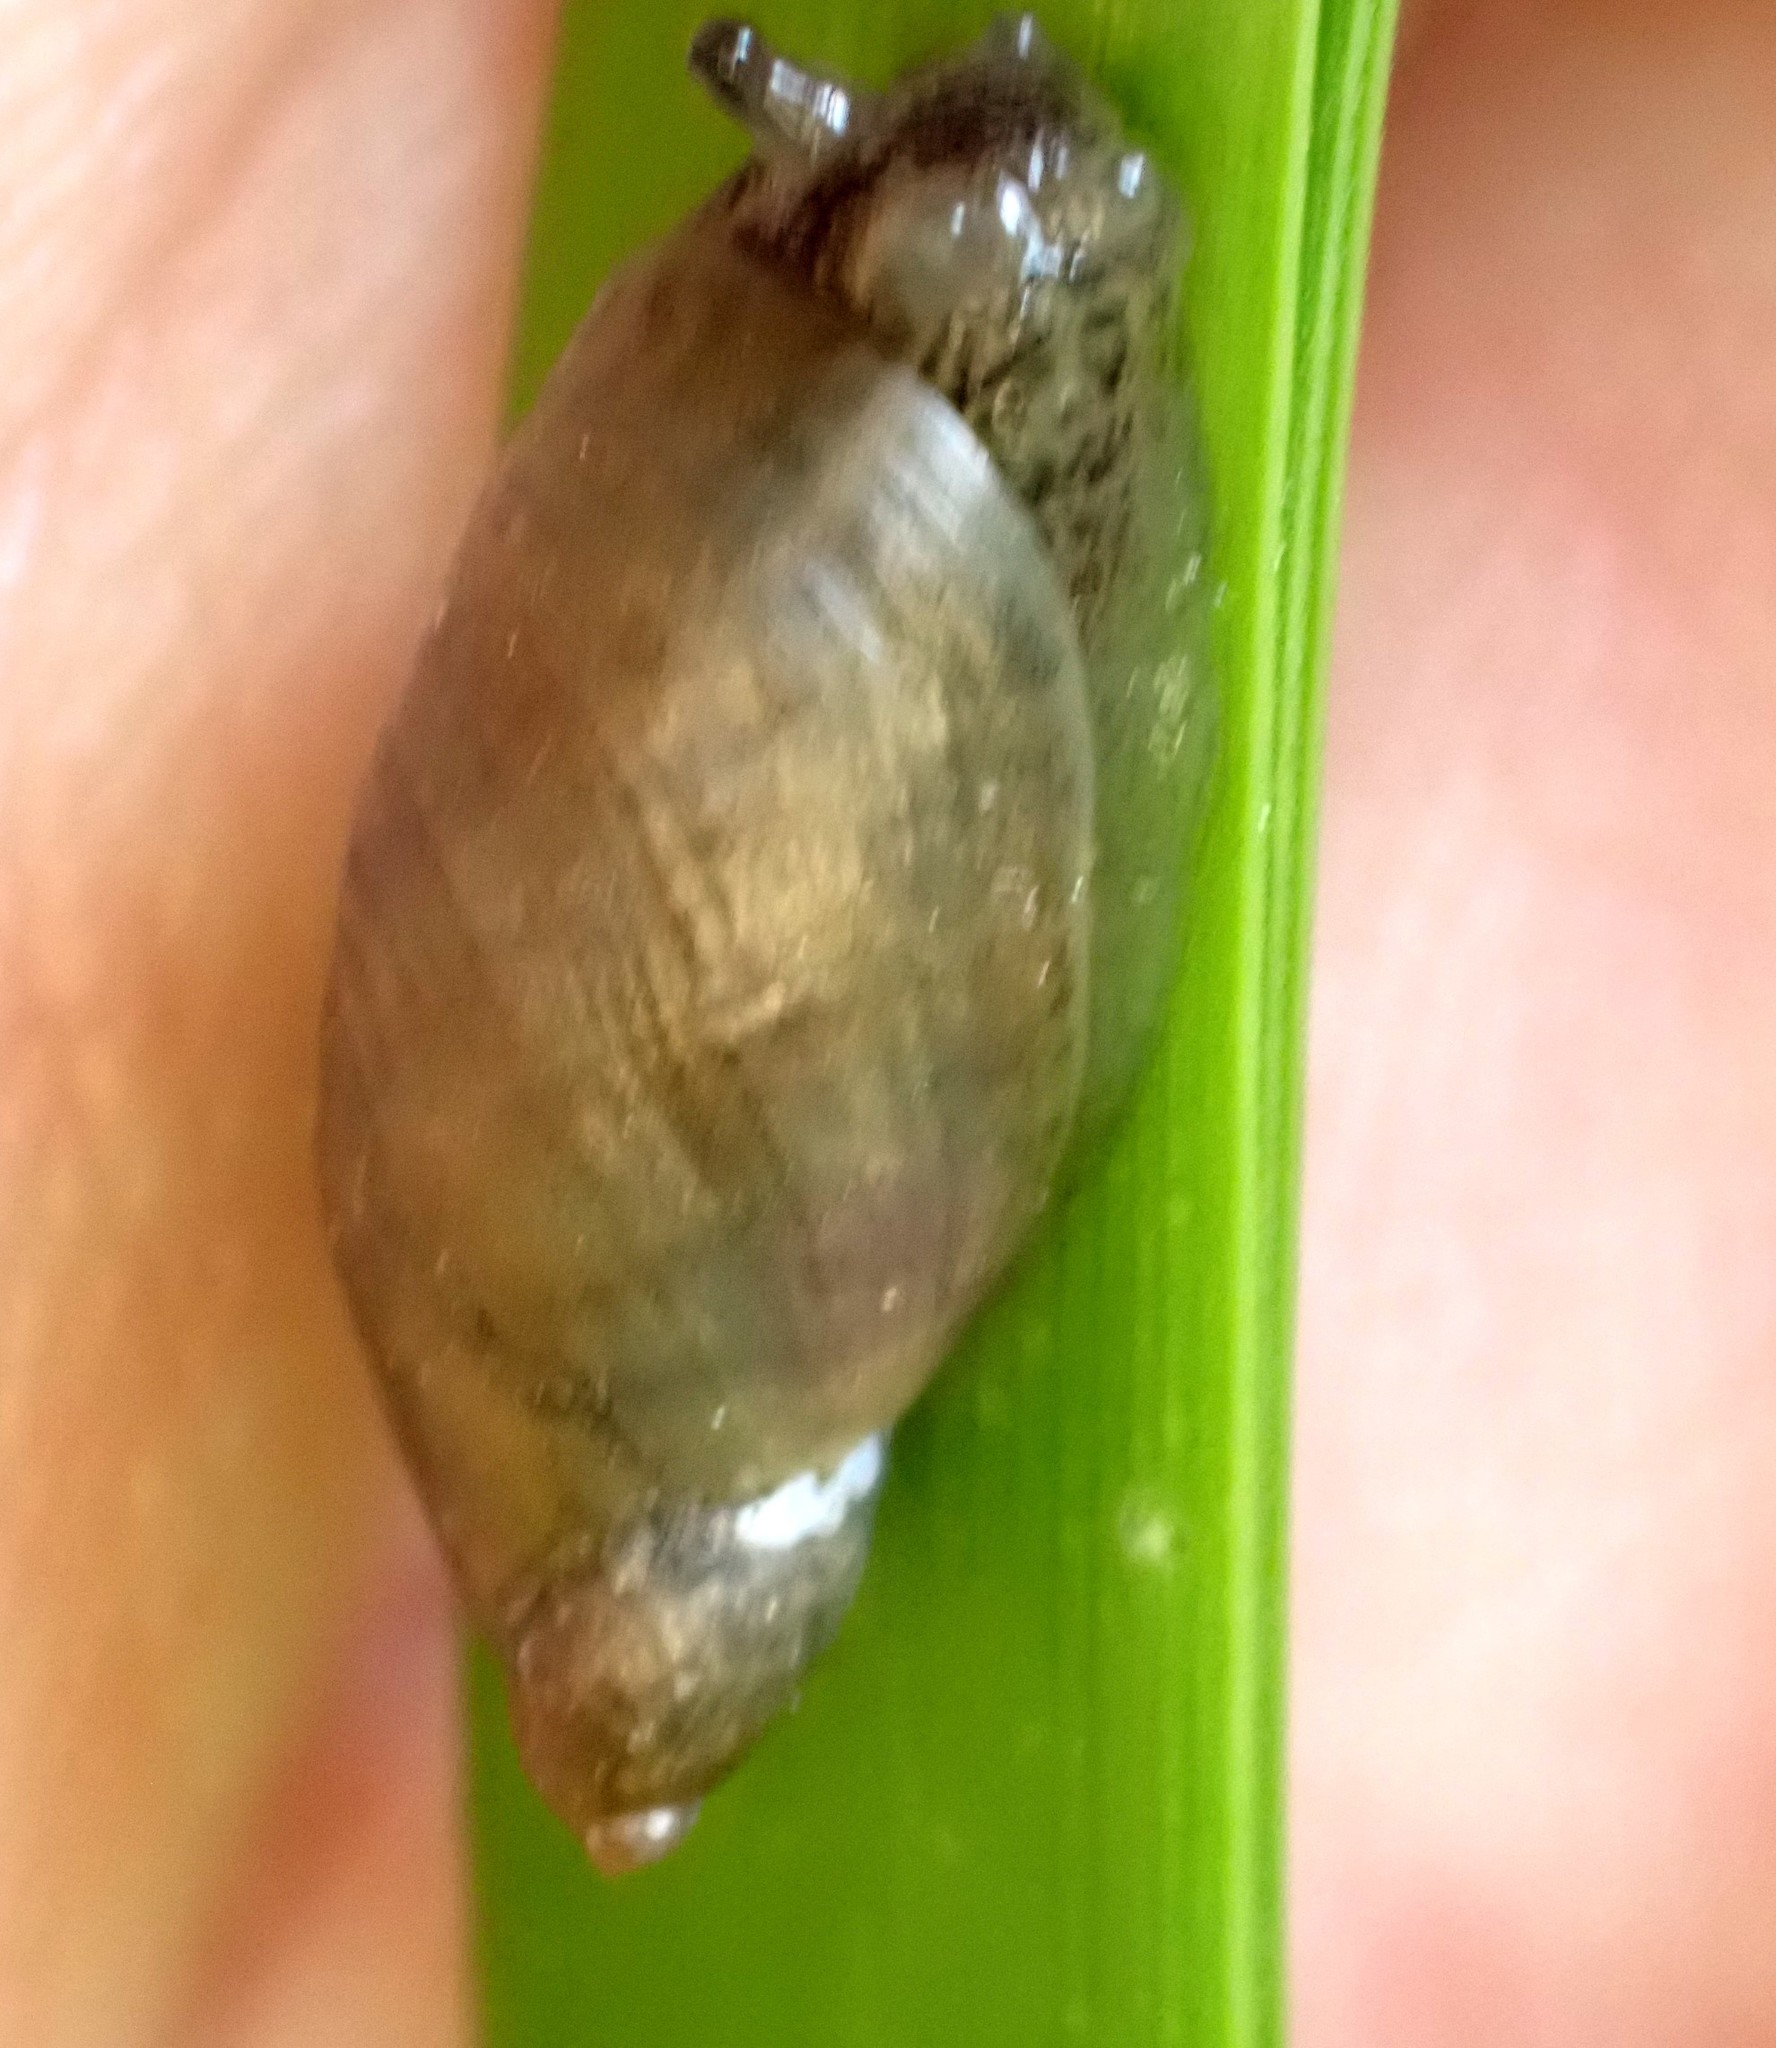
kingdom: Animalia
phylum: Mollusca
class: Gastropoda
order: Stylommatophora
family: Succineidae
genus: Succinea
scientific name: Succinea putris
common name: European ambersnail
